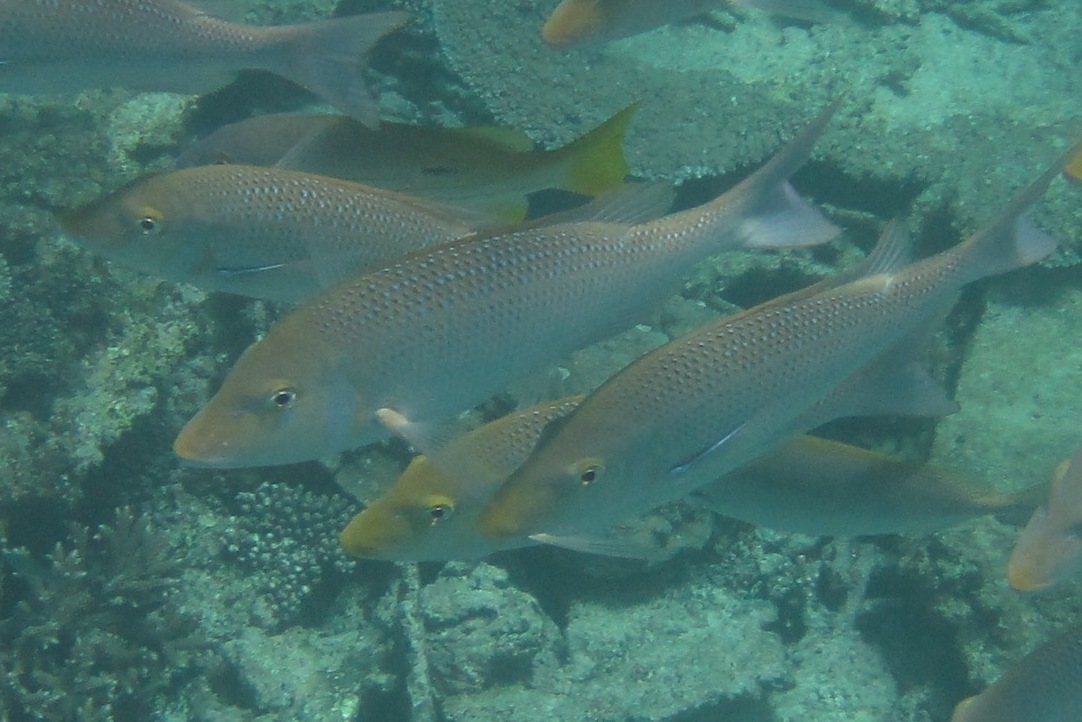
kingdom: Animalia
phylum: Chordata
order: Perciformes
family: Lethrinidae
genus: Lethrinus
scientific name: Lethrinus nebulosus
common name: Spangled emperor
